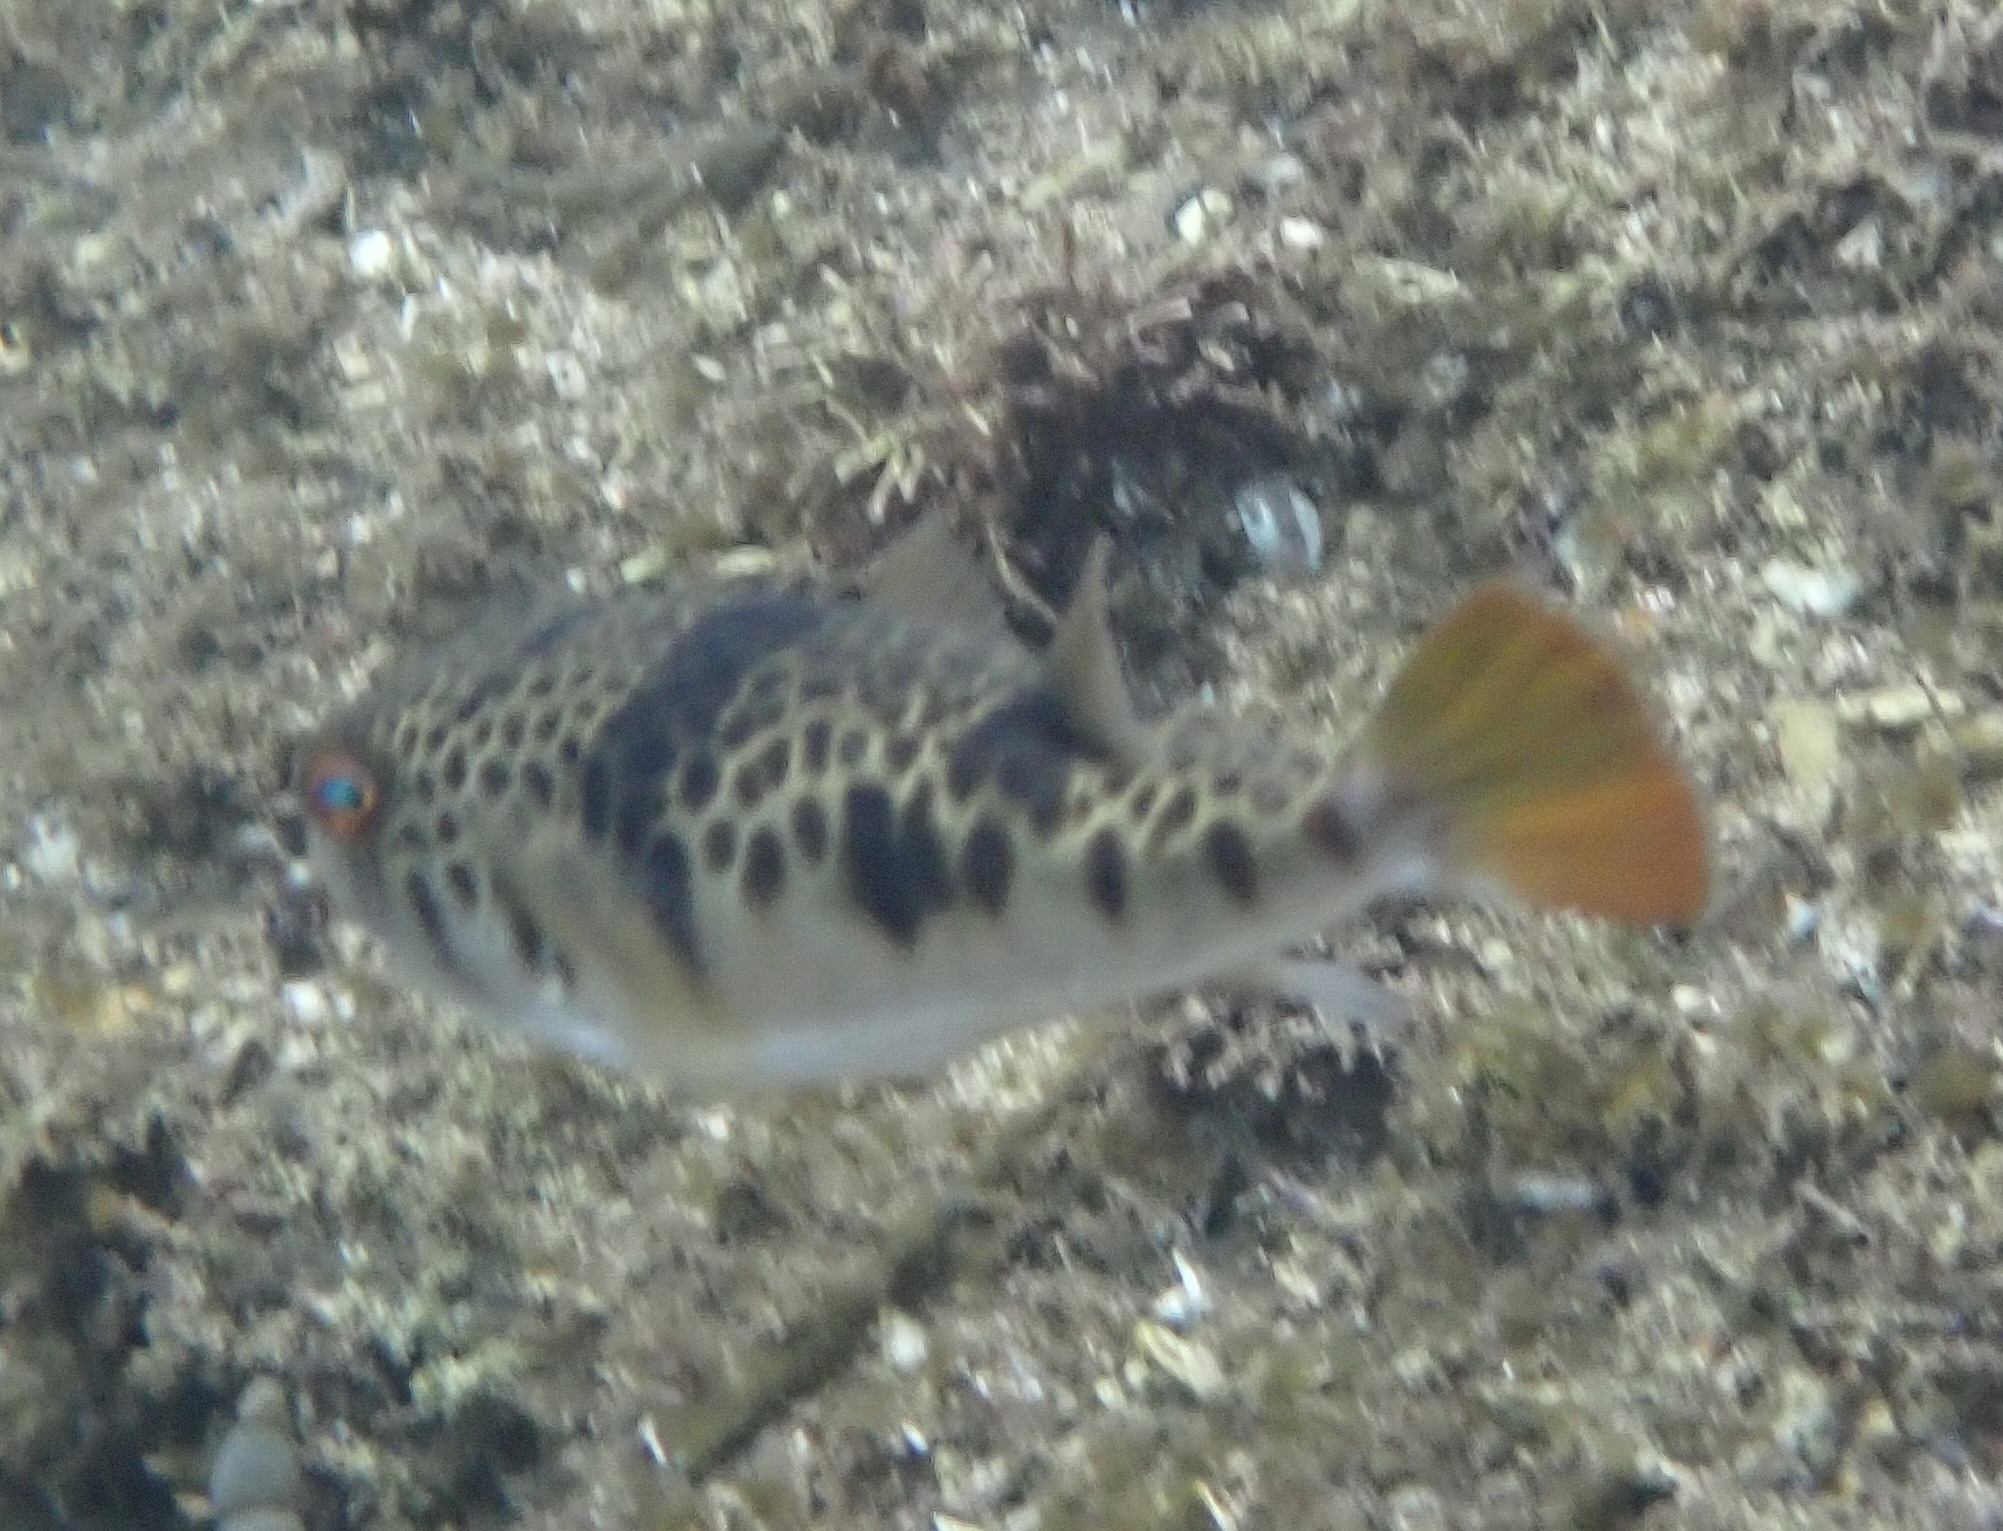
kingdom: Animalia
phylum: Chordata
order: Tetraodontiformes
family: Tetraodontidae
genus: Tetractenos
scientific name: Tetractenos glaber
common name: Smooth toadfish
